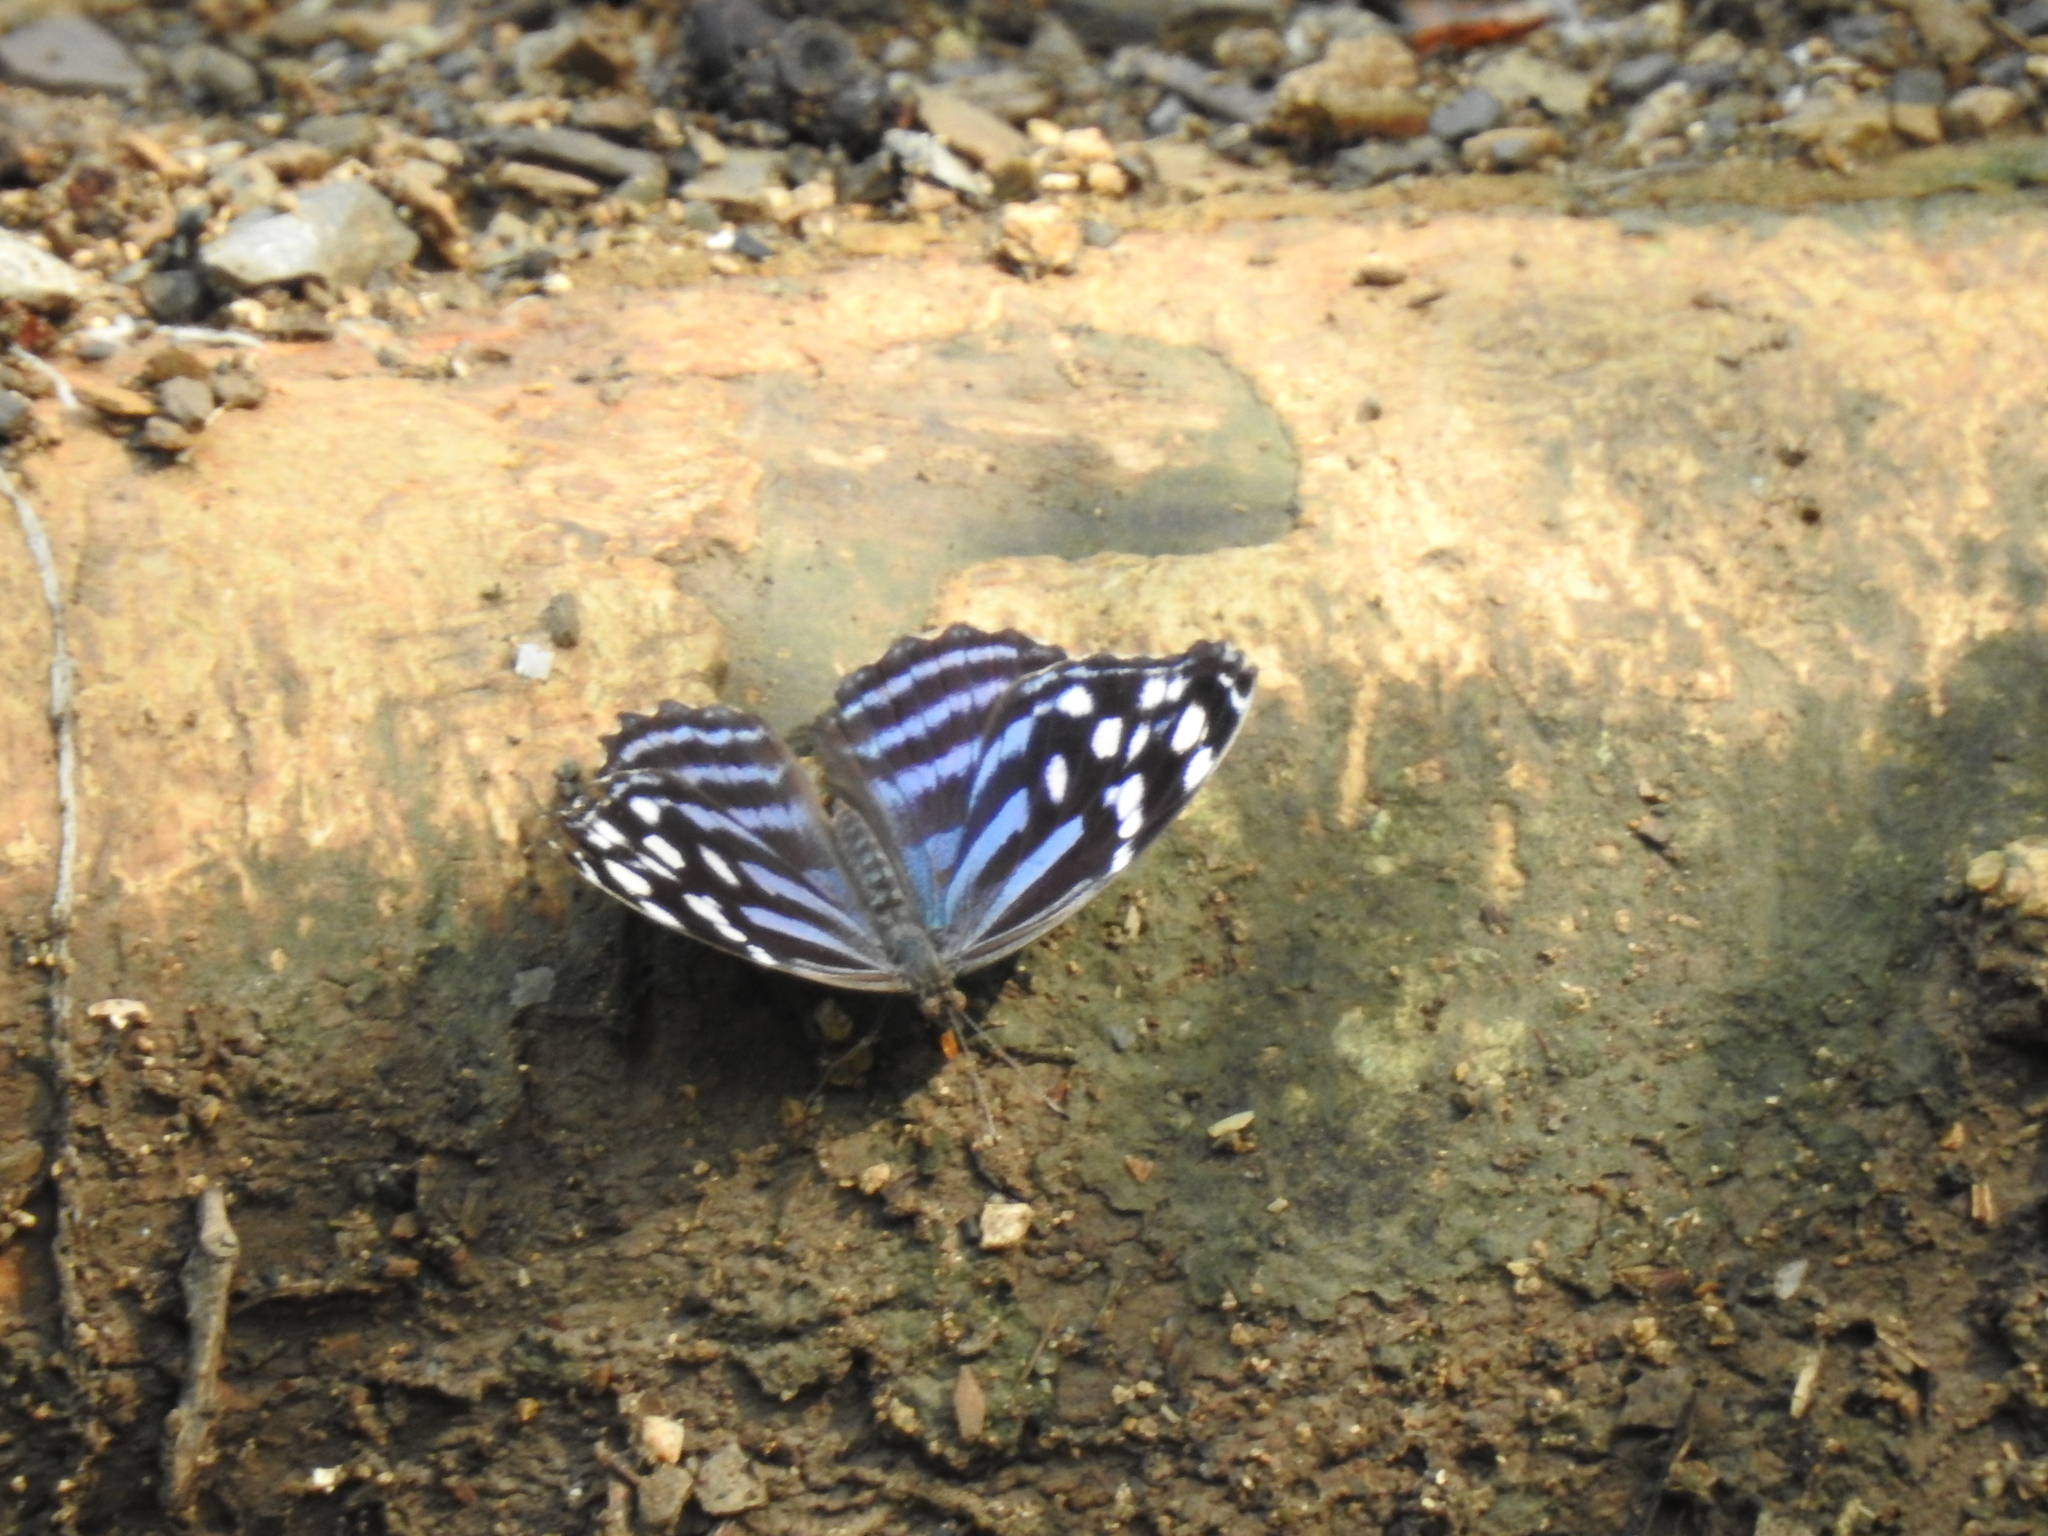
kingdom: Animalia
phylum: Arthropoda
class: Insecta
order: Lepidoptera
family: Nymphalidae
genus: Myscelia
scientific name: Myscelia ethusa
